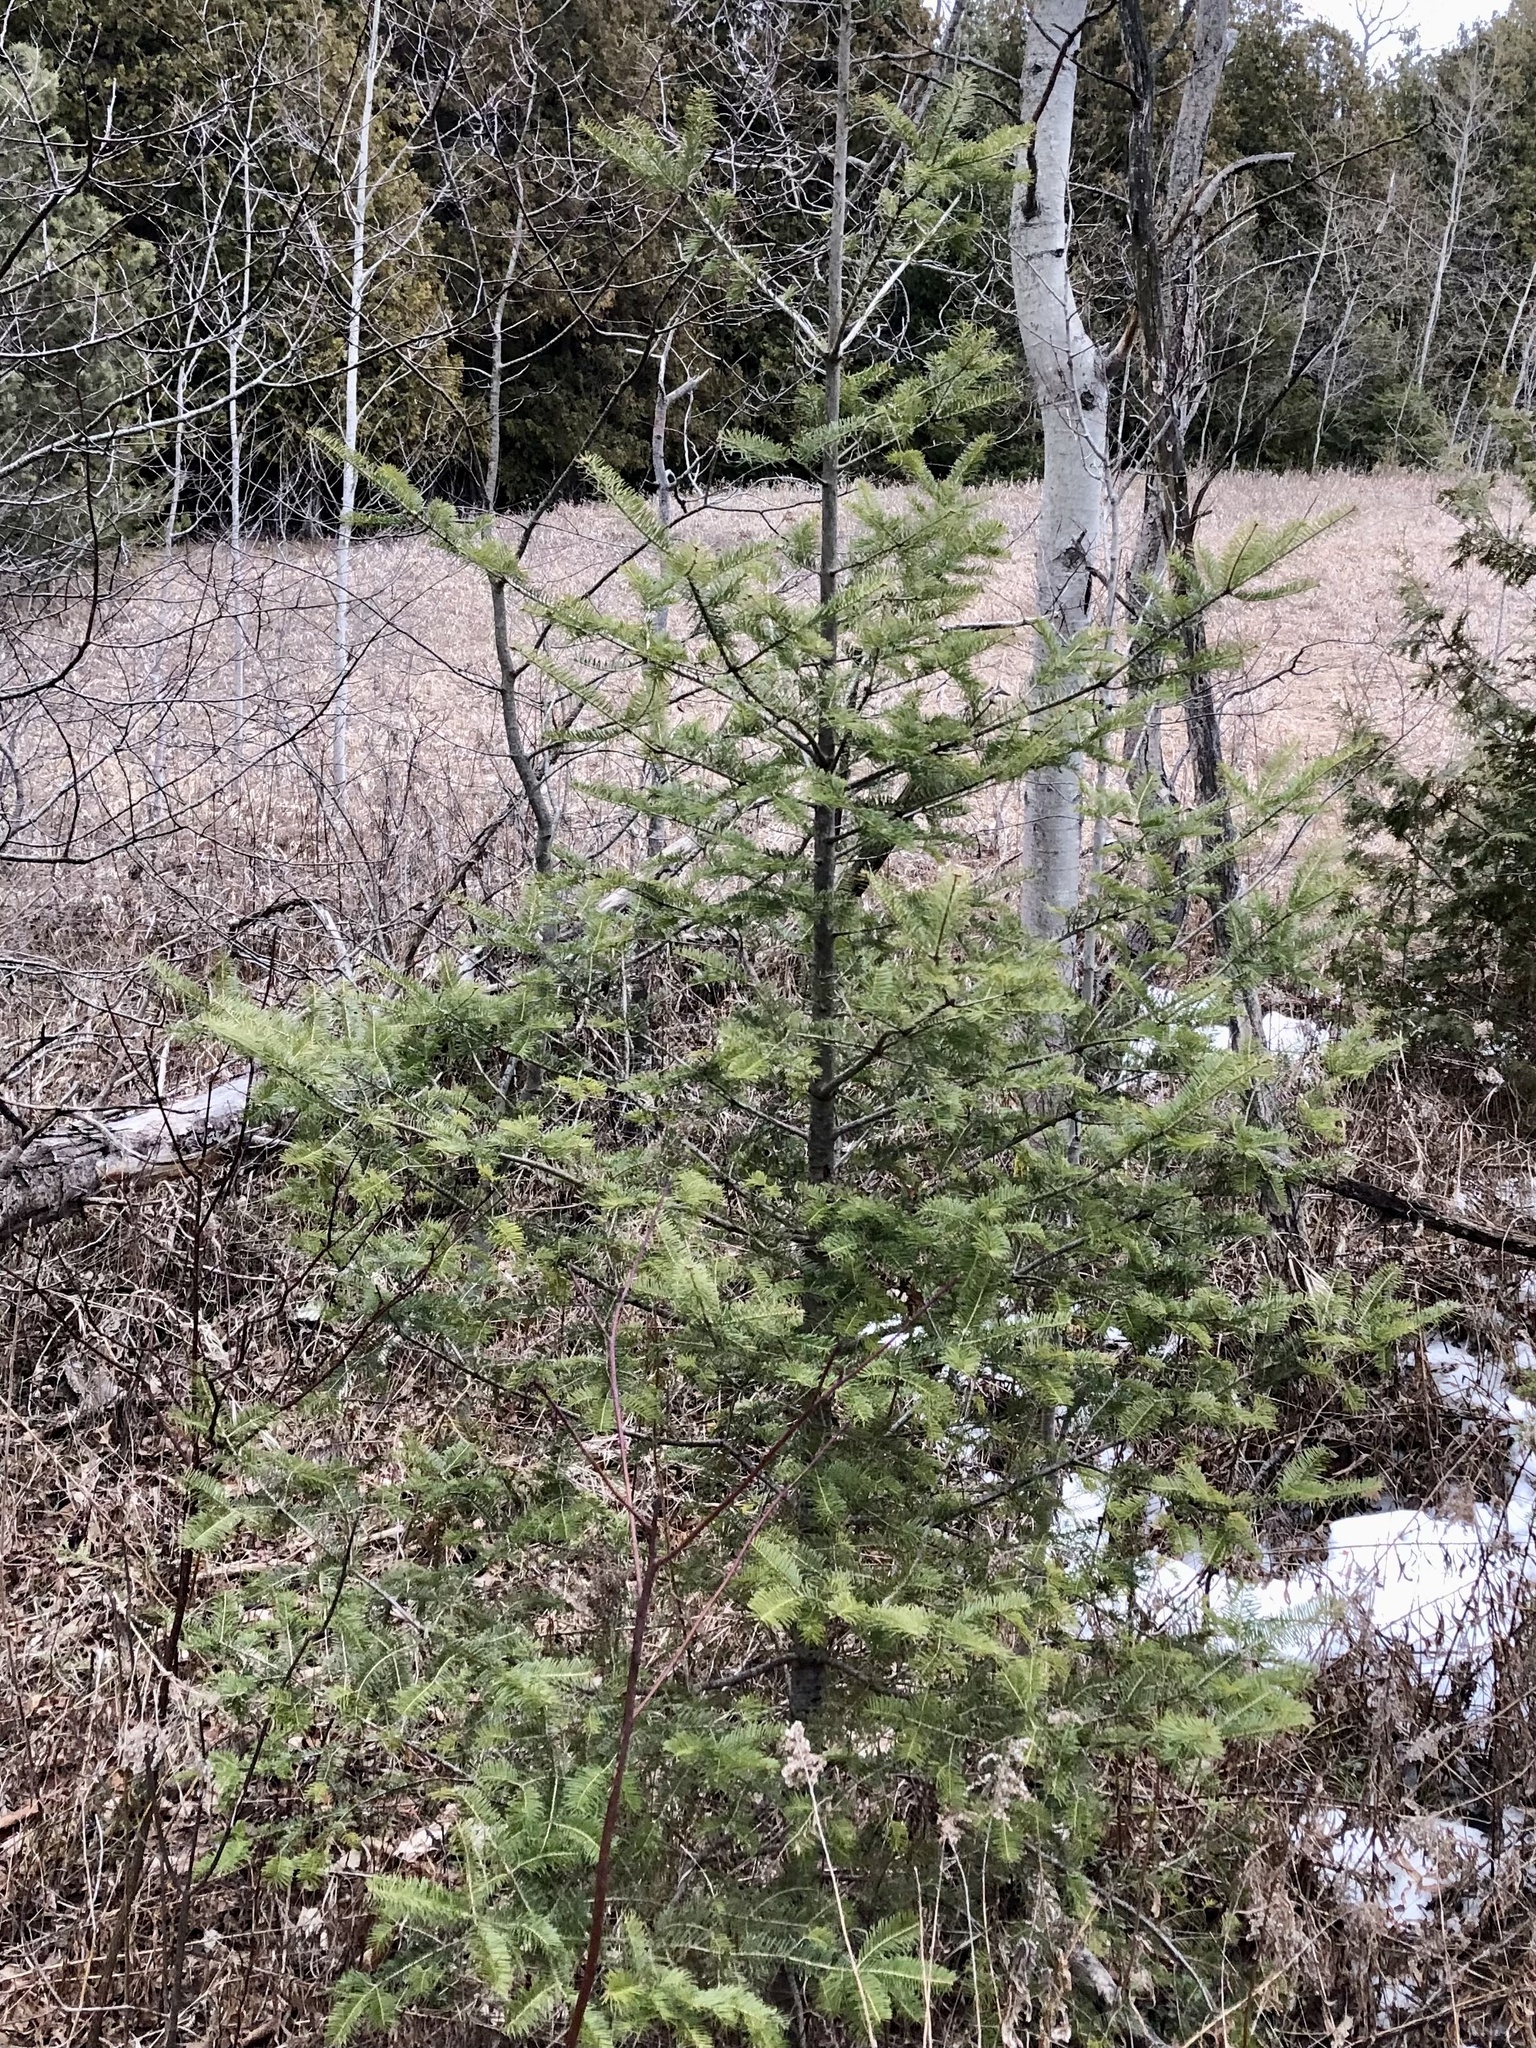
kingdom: Plantae
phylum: Tracheophyta
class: Pinopsida
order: Pinales
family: Pinaceae
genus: Abies
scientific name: Abies balsamea
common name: Balsam fir
